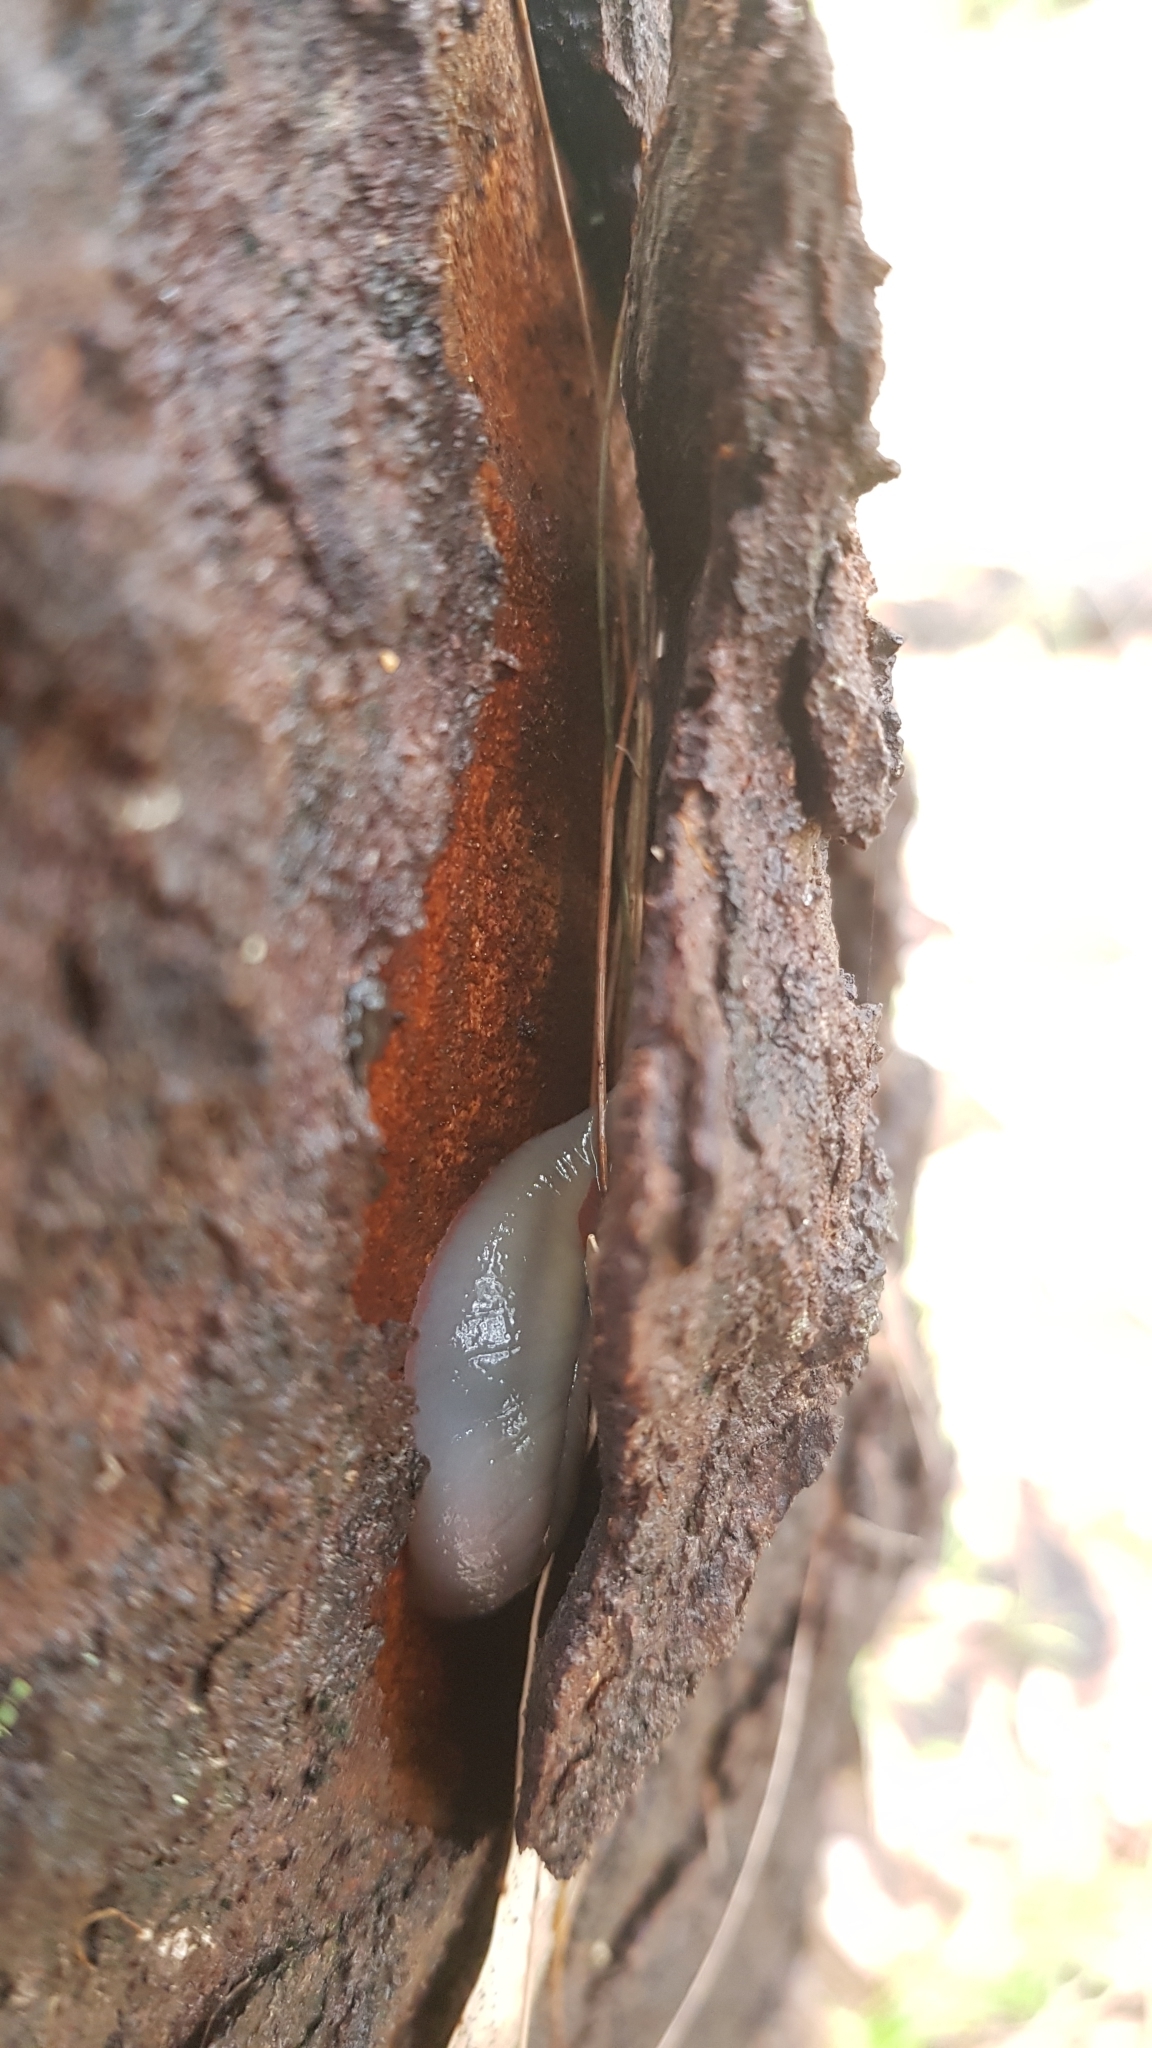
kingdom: Animalia
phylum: Mollusca
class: Gastropoda
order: Stylommatophora
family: Athoracophoridae
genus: Triboniophorus
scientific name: Triboniophorus graeffei
